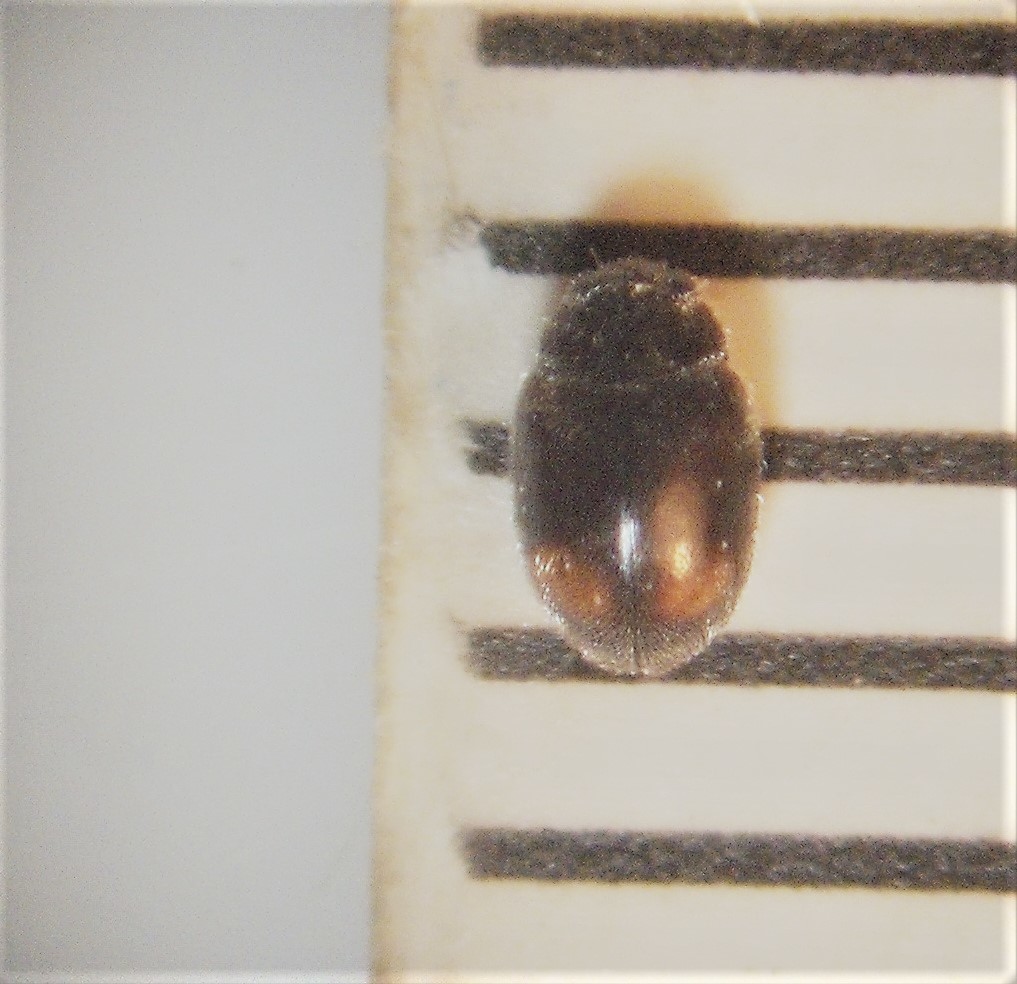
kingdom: Animalia
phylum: Arthropoda
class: Insecta
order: Coleoptera
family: Coccinellidae
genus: Nephus
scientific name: Nephus binaevatus
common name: Ladybird beetle
